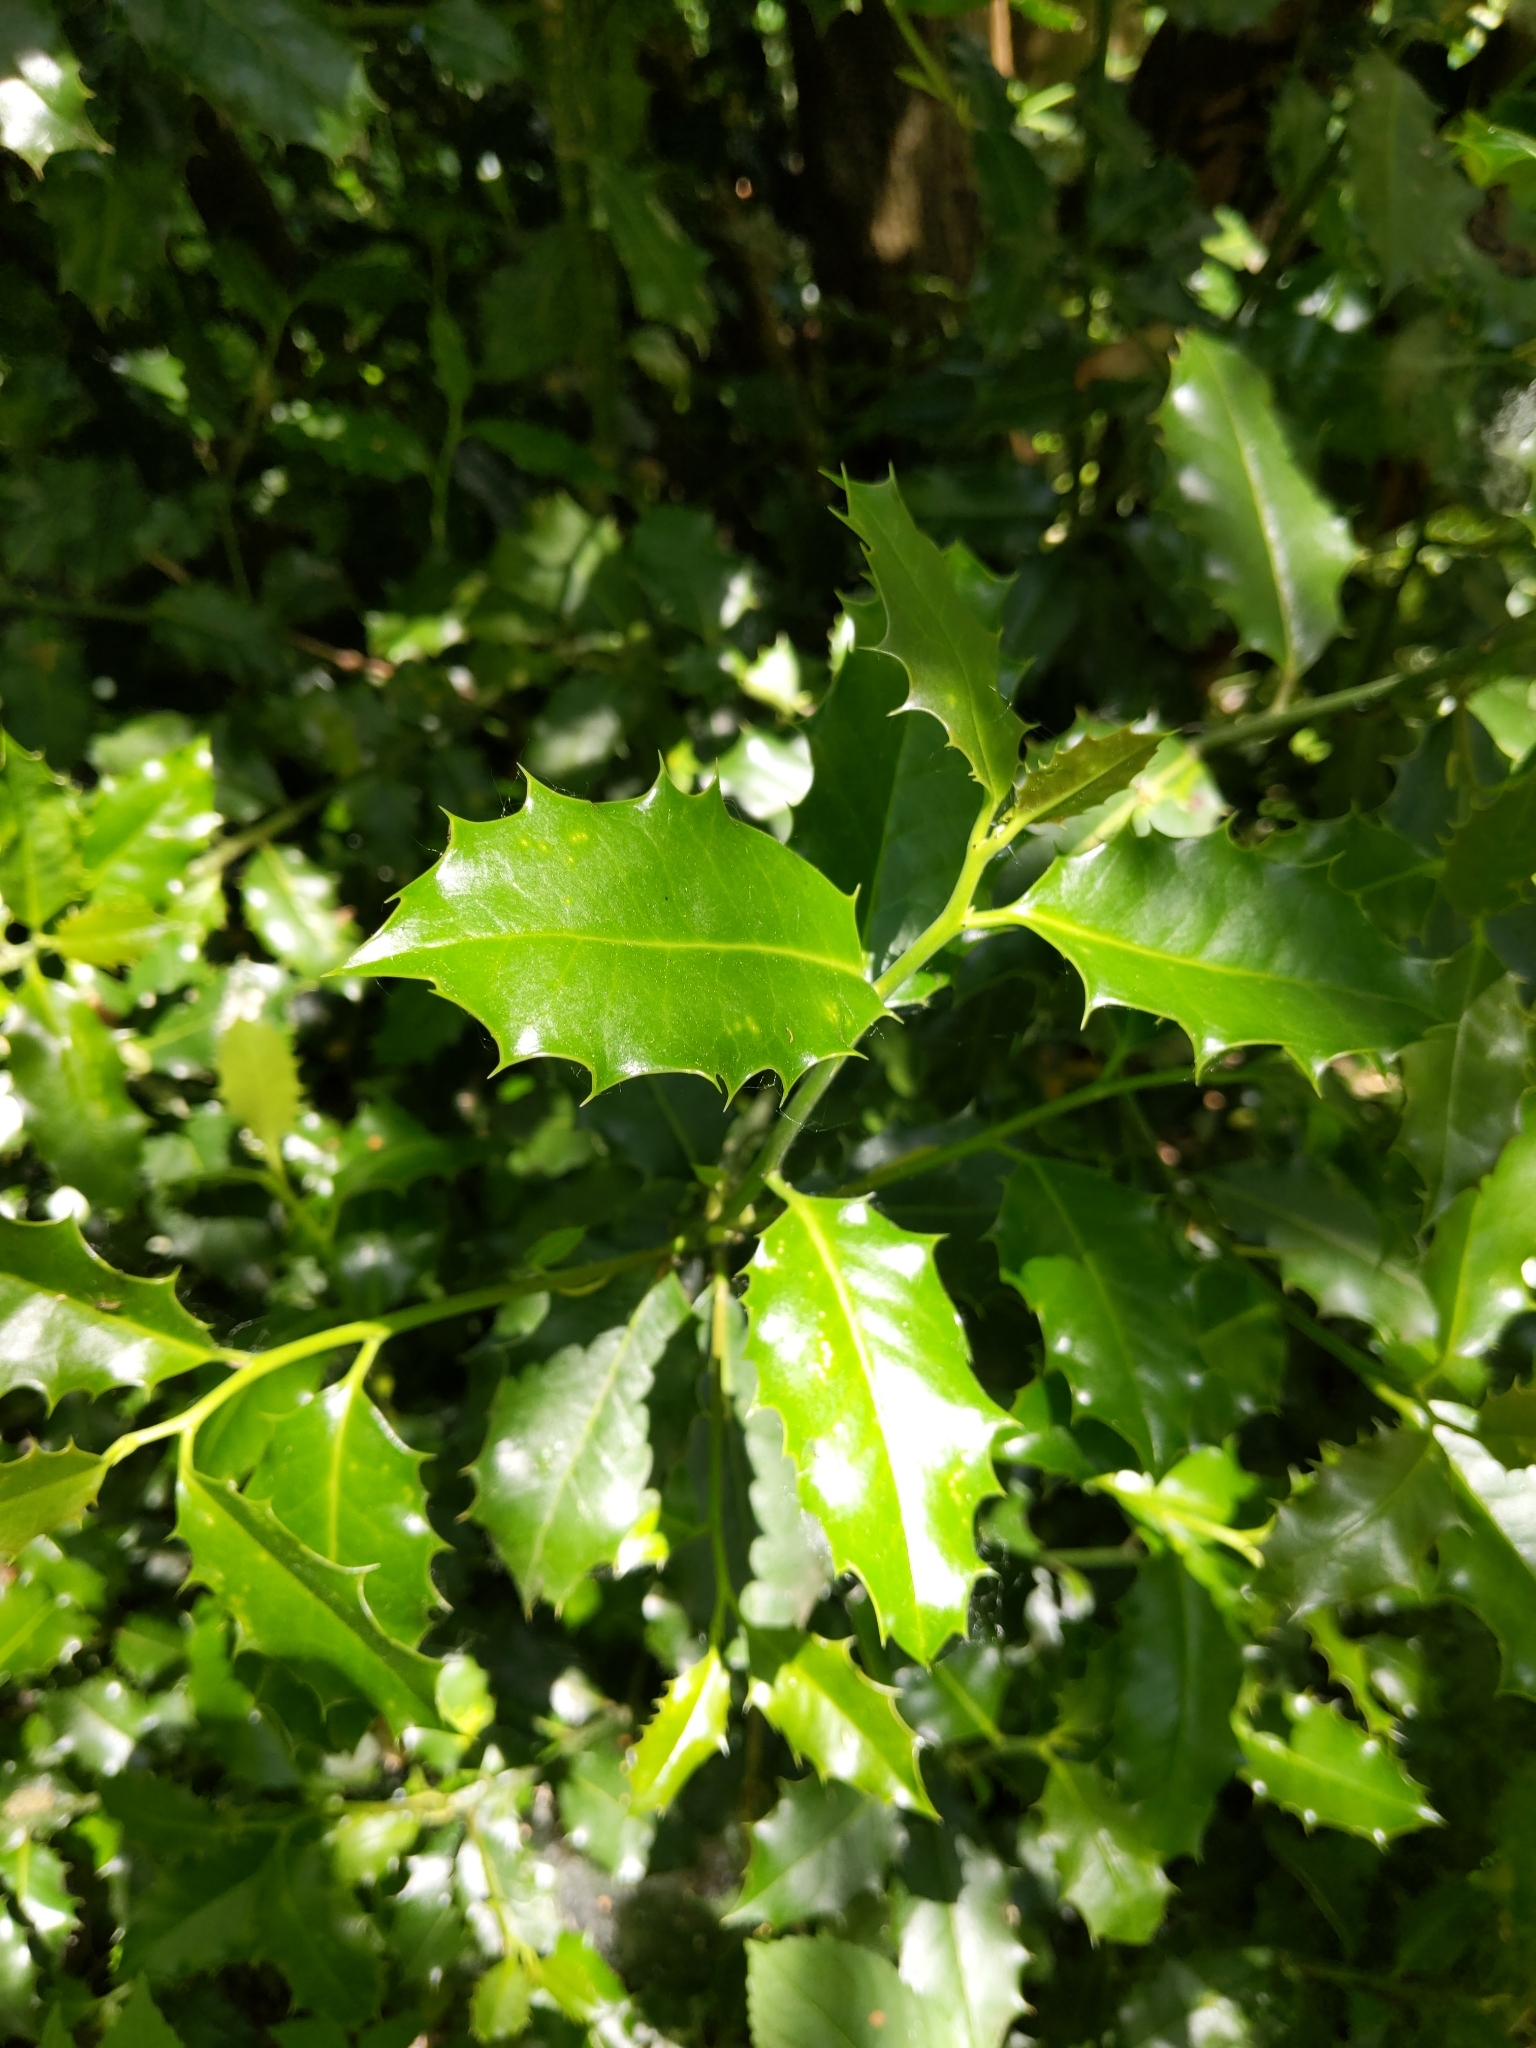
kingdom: Plantae
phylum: Tracheophyta
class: Magnoliopsida
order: Aquifoliales
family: Aquifoliaceae
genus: Ilex
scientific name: Ilex aquifolium
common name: English holly
